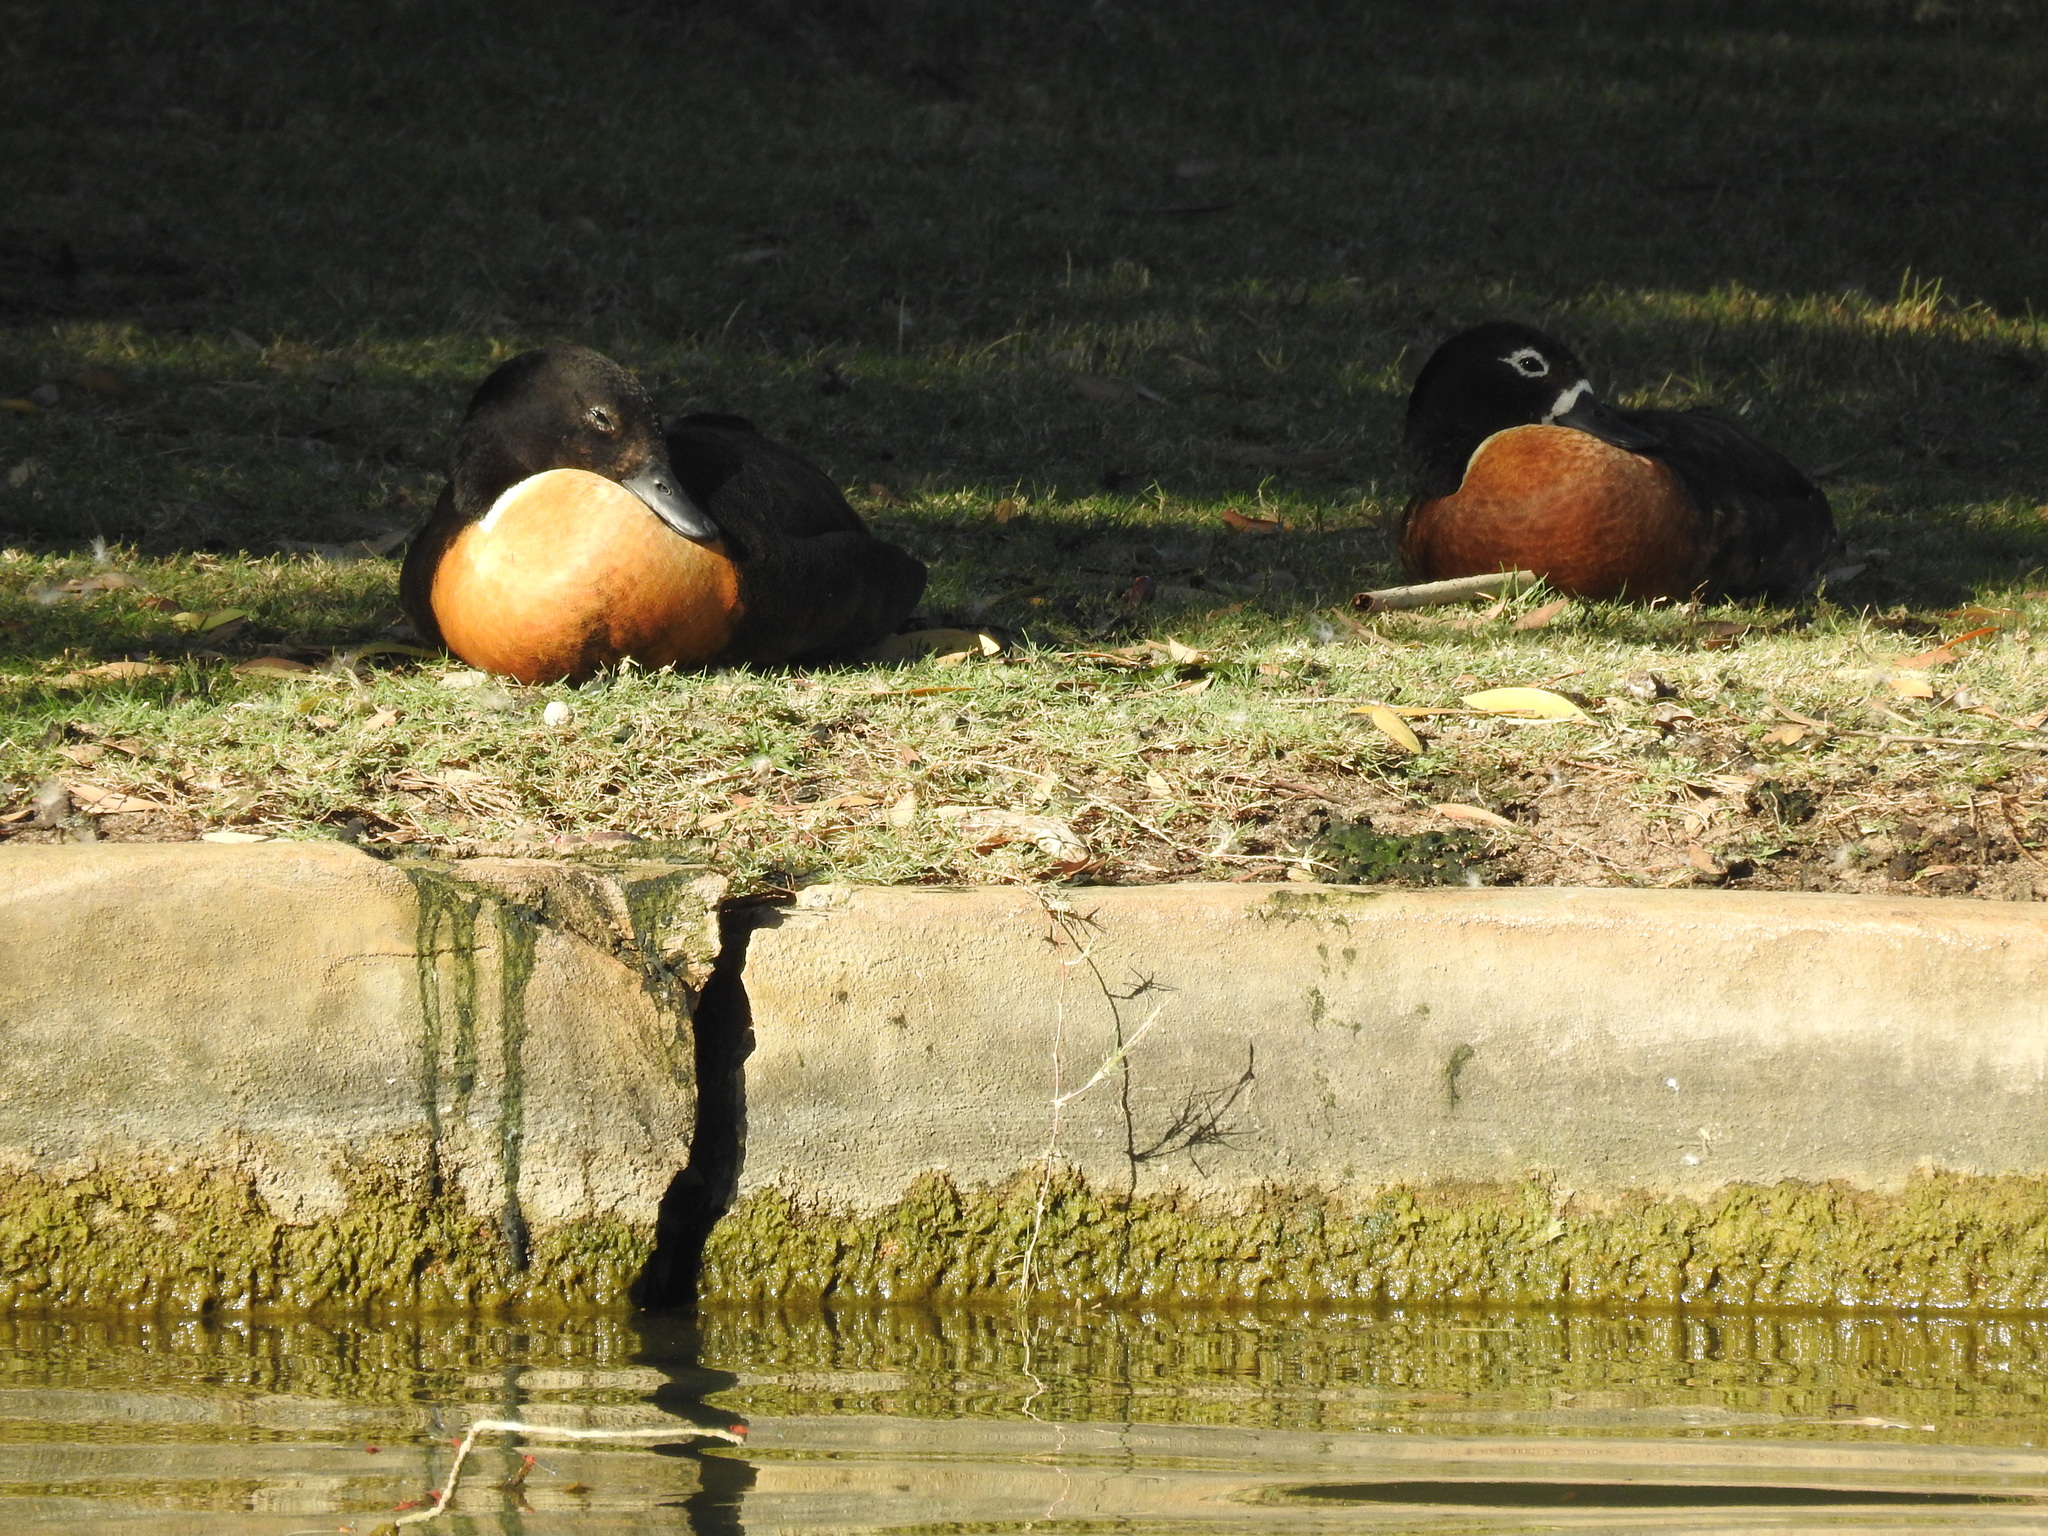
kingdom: Animalia
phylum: Chordata
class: Aves
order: Anseriformes
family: Anatidae
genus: Tadorna
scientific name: Tadorna tadornoides
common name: Australian shelduck
